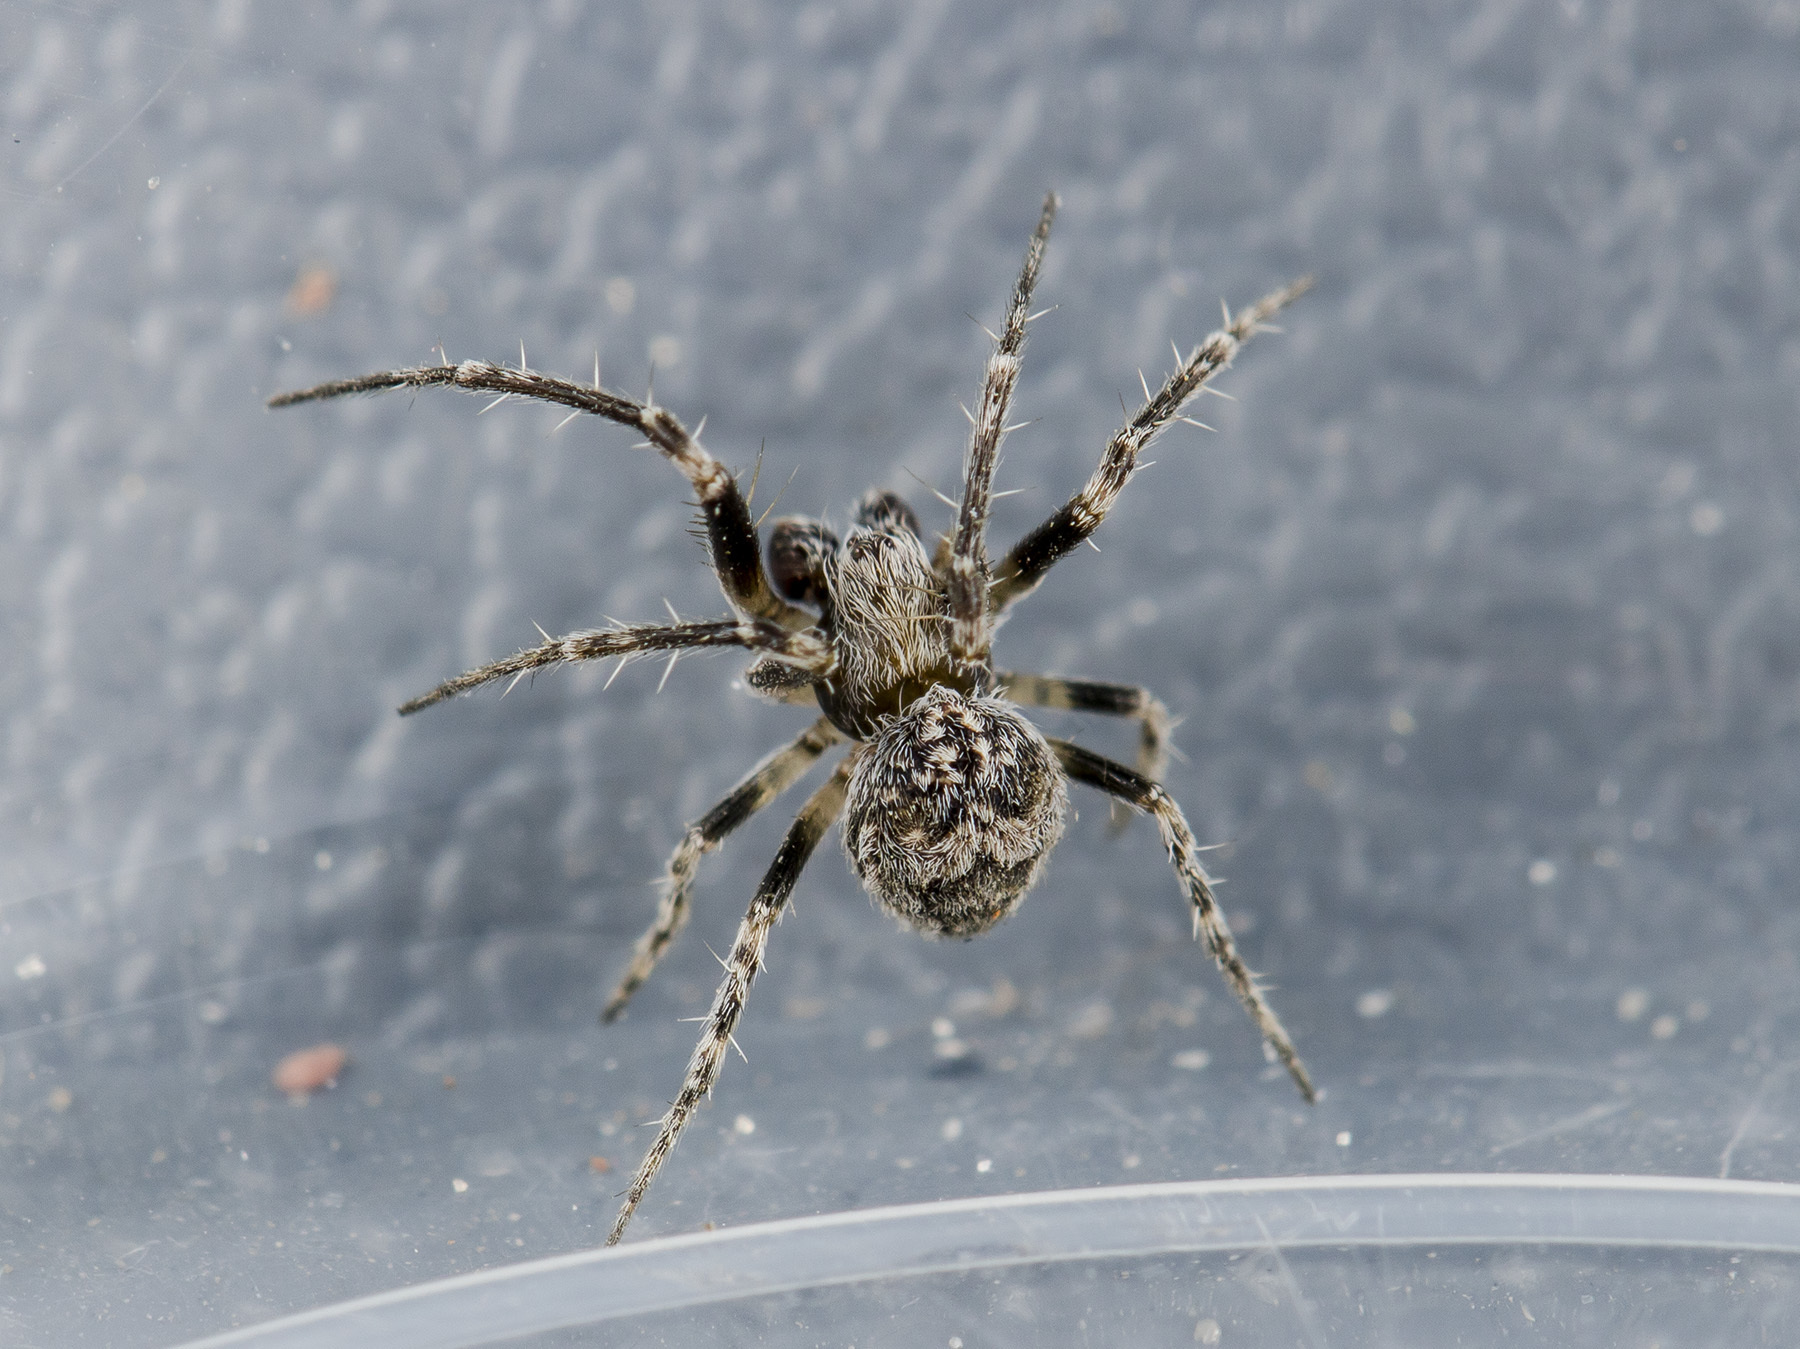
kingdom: Animalia
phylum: Arthropoda
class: Arachnida
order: Araneae
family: Araneidae
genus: Araneus
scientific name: Araneus strandiellus
